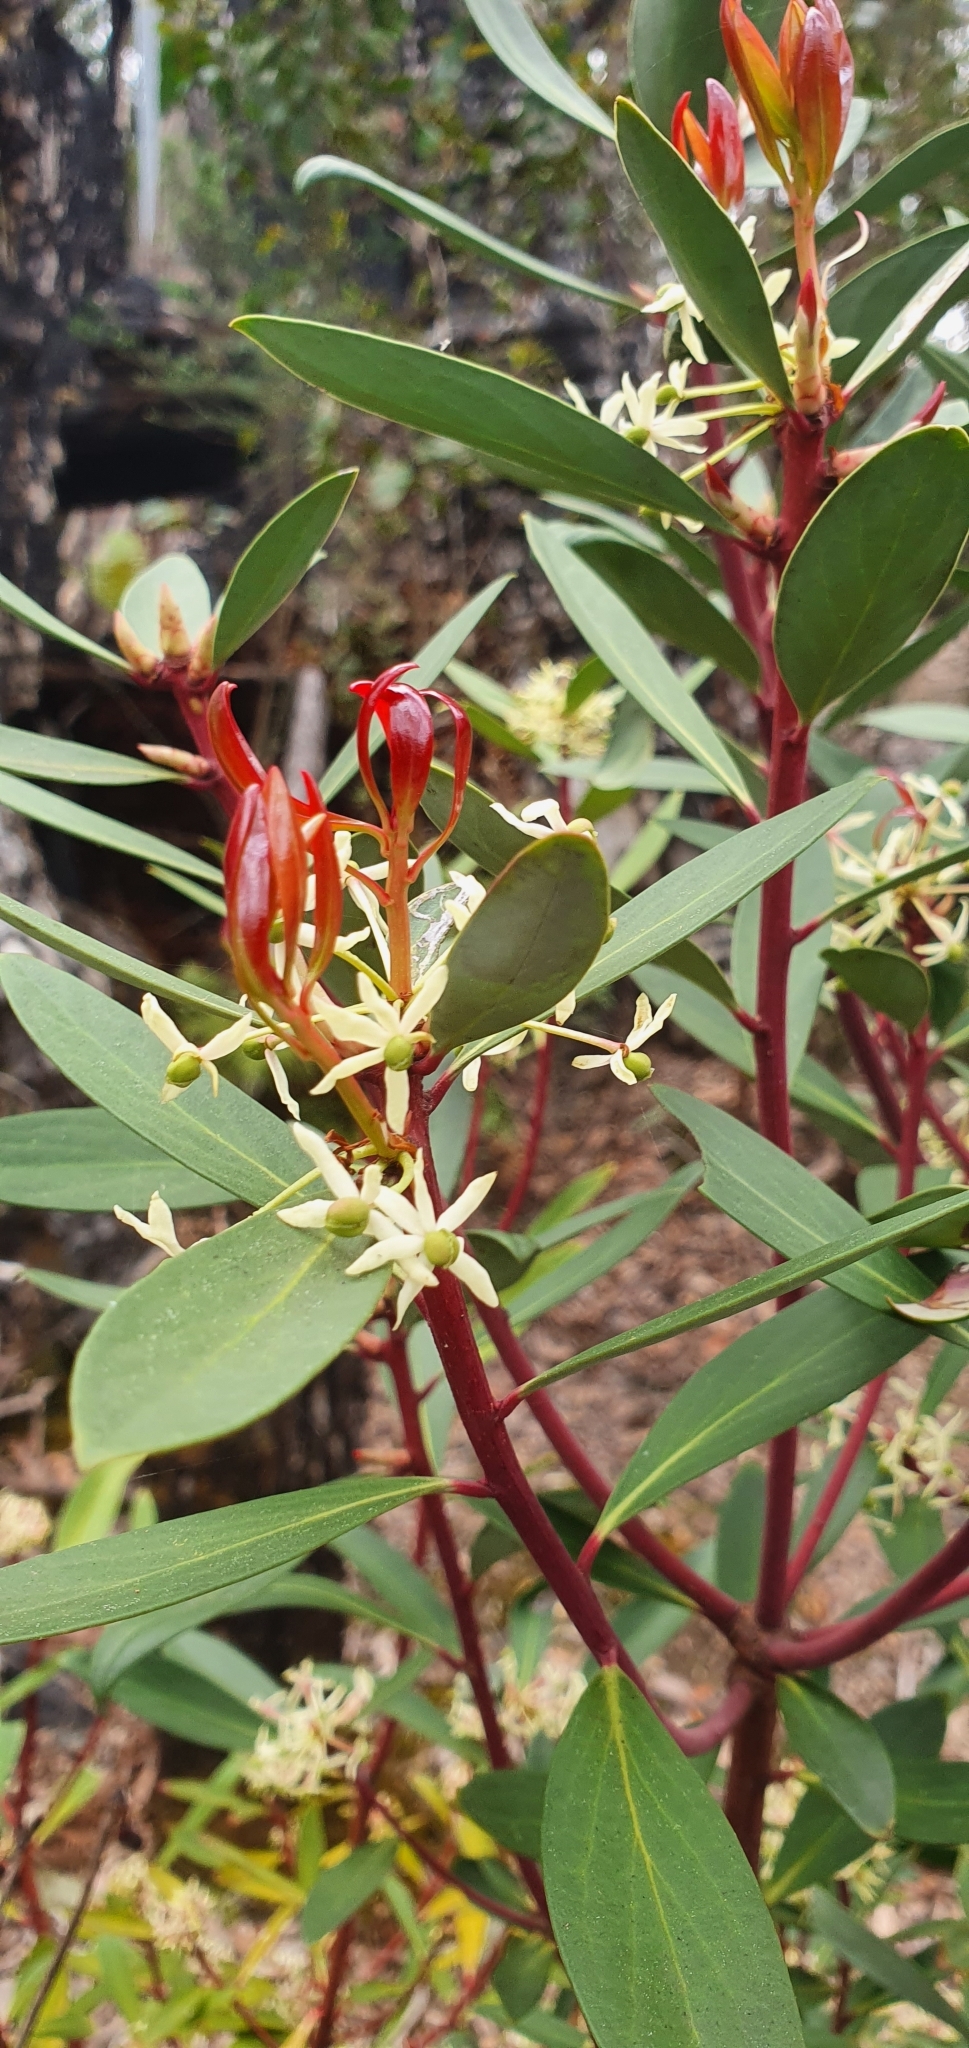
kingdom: Plantae
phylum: Tracheophyta
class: Magnoliopsida
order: Canellales
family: Winteraceae
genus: Drimys
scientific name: Drimys aromatica
